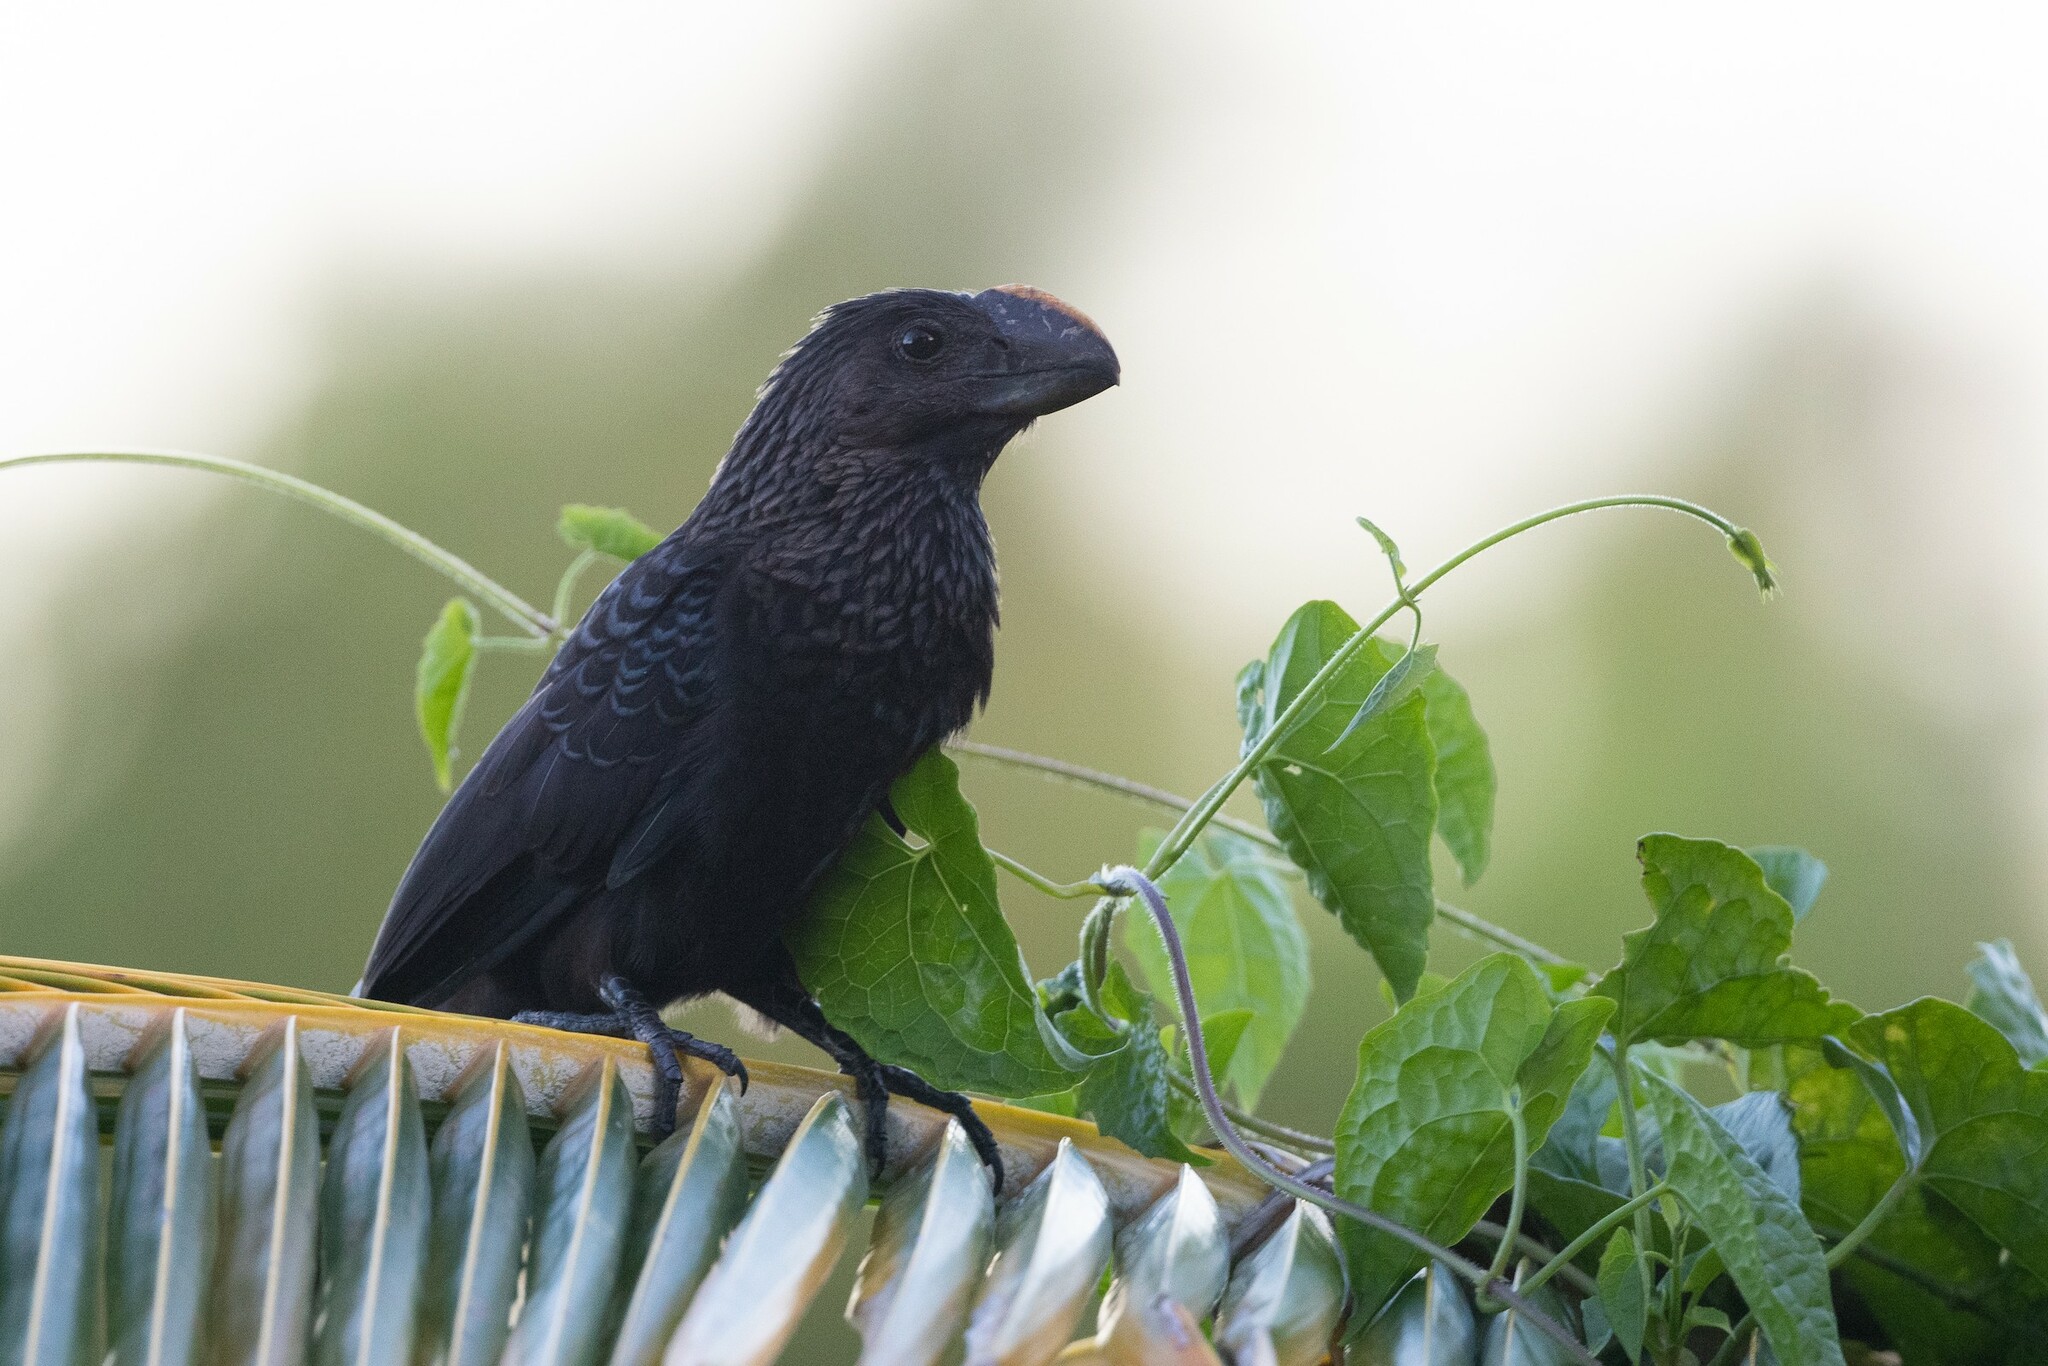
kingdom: Animalia
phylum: Chordata
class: Aves
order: Cuculiformes
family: Cuculidae
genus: Crotophaga
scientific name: Crotophaga ani
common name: Smooth-billed ani
